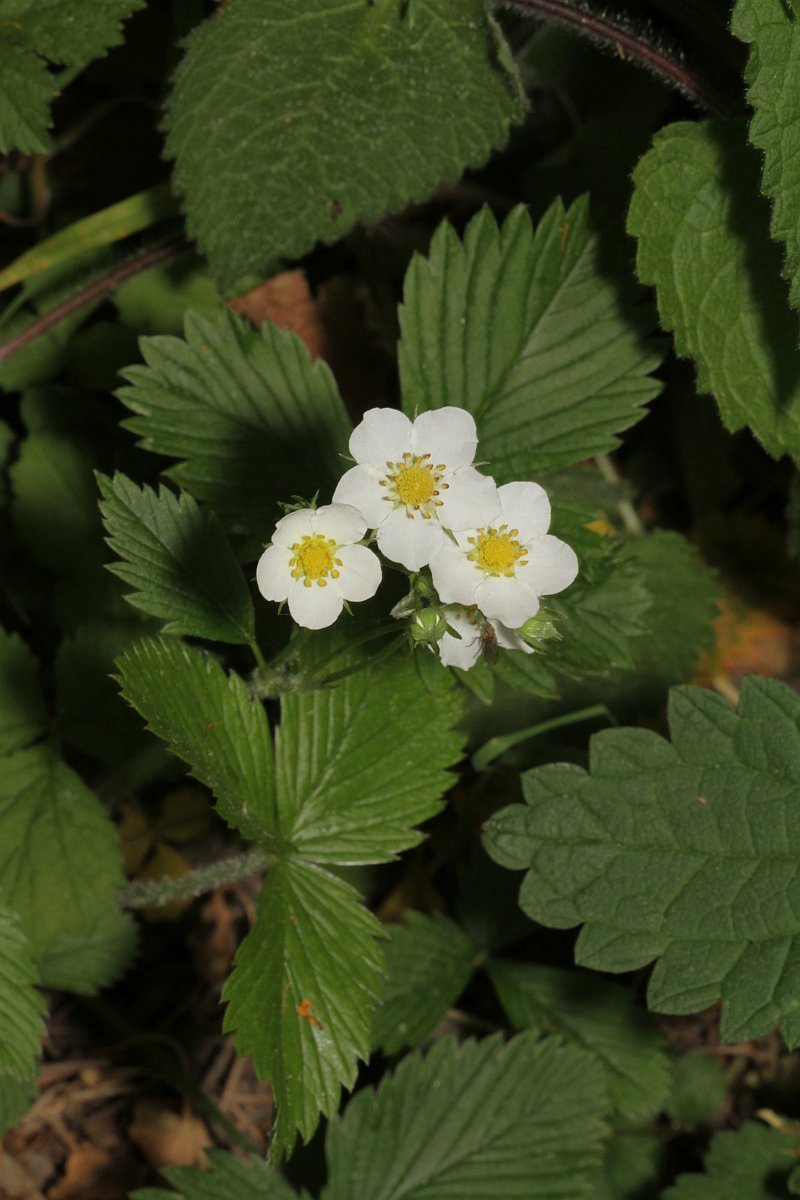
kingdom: Plantae
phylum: Tracheophyta
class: Magnoliopsida
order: Rosales
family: Rosaceae
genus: Fragaria
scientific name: Fragaria vesca
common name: Wild strawberry
